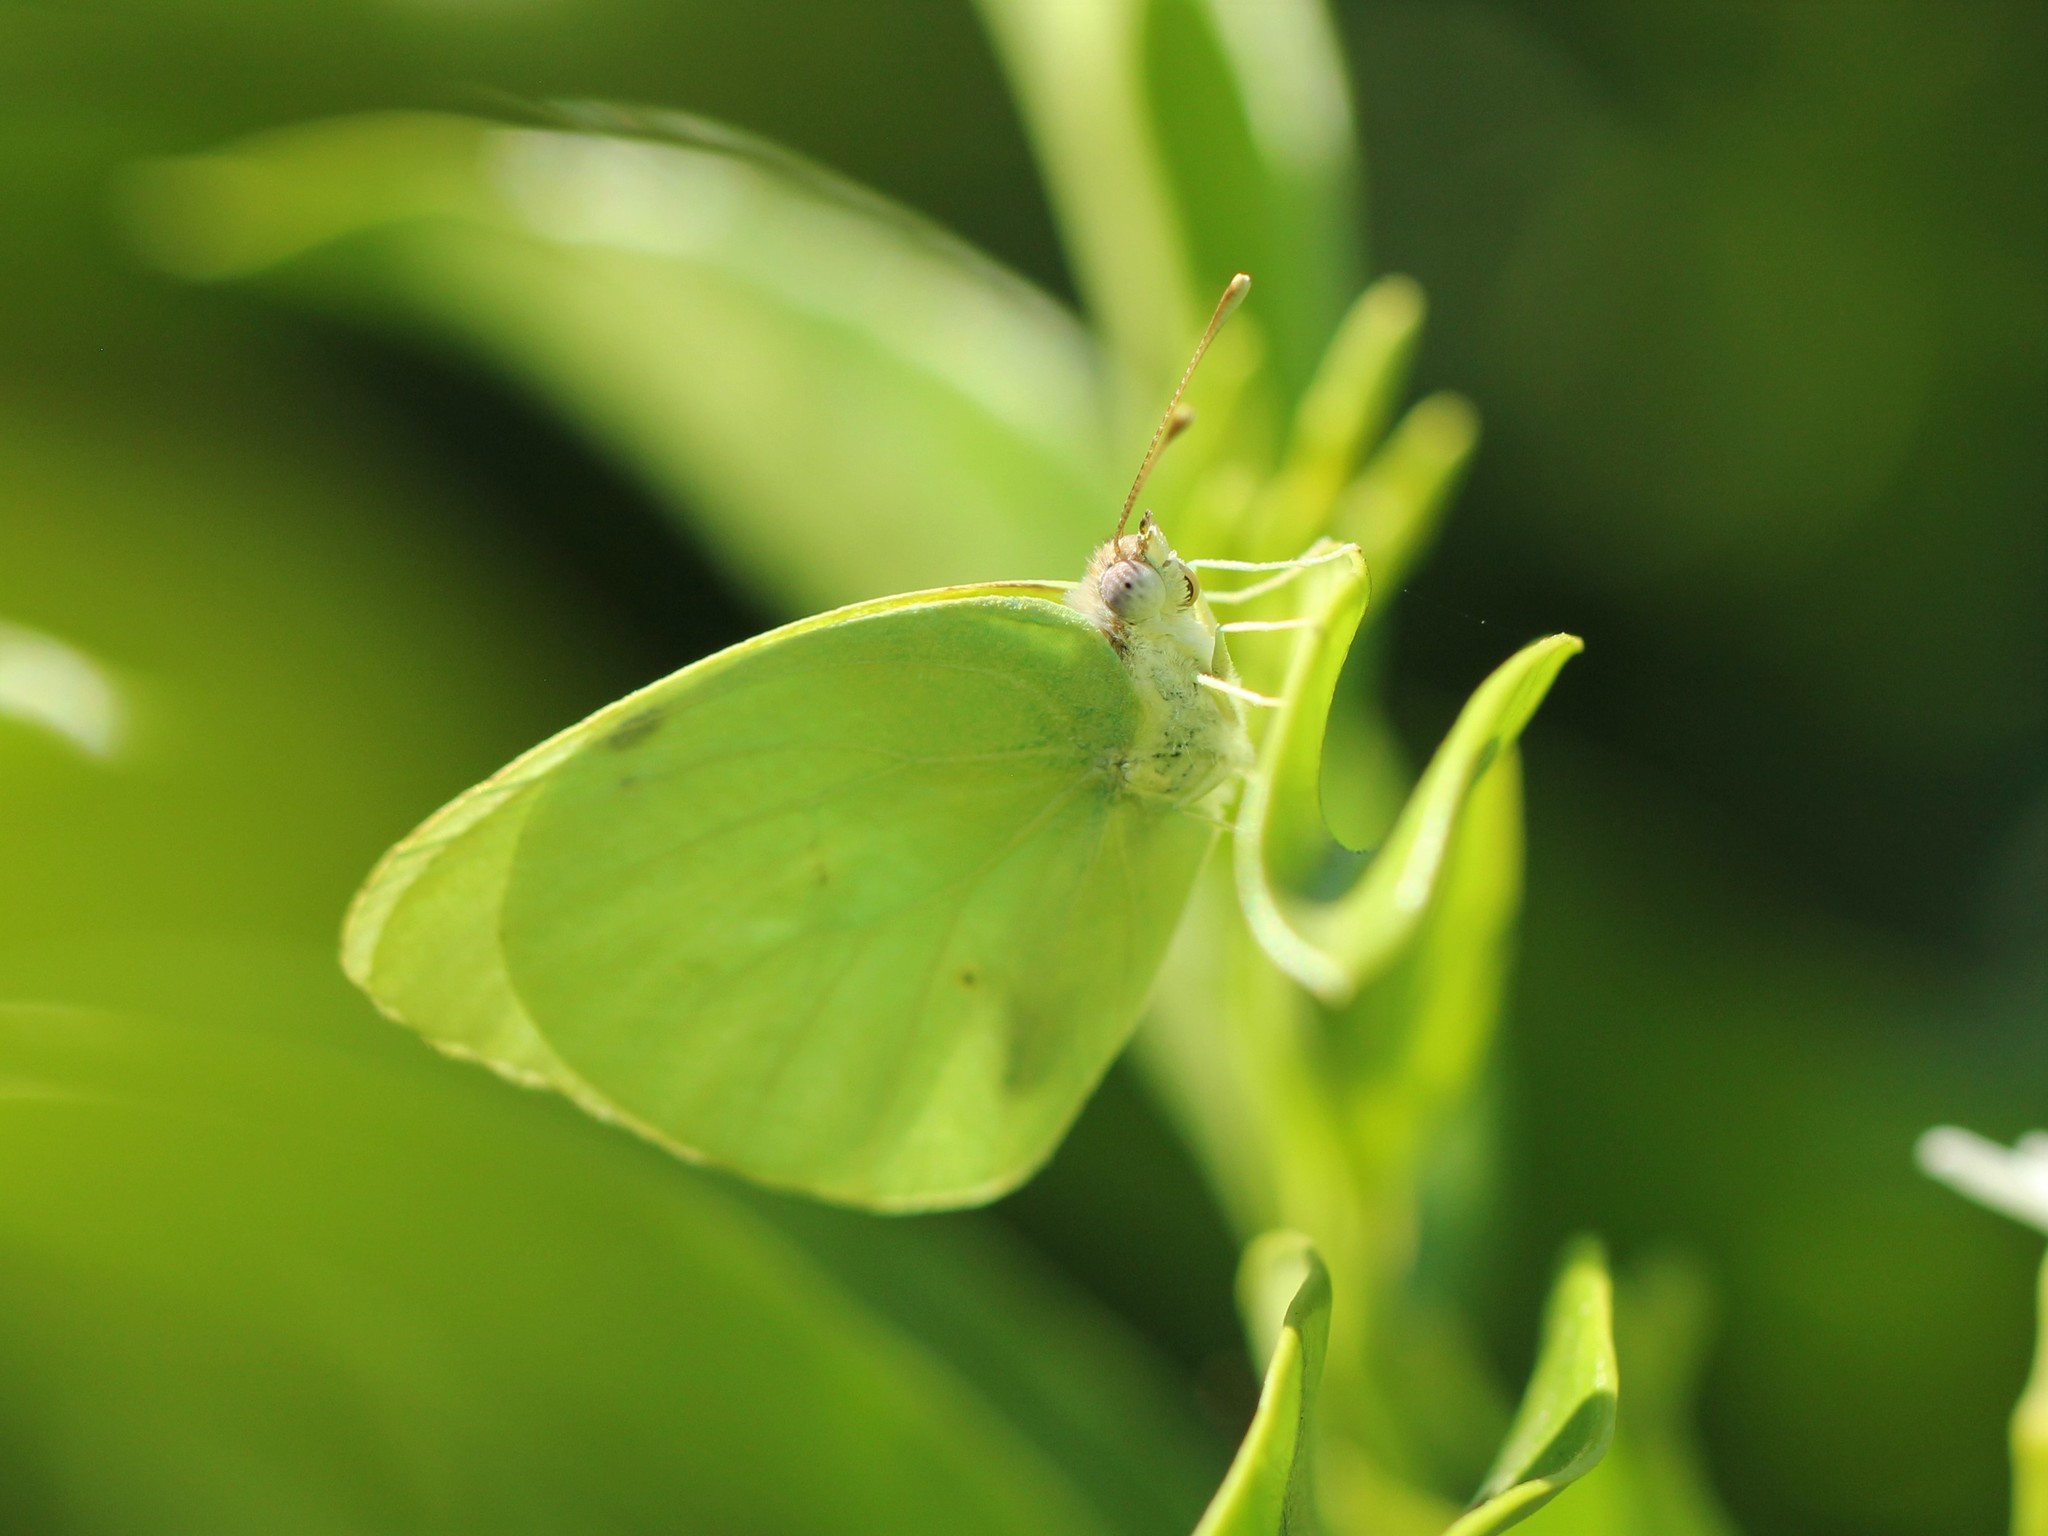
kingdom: Animalia
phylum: Arthropoda
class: Insecta
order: Lepidoptera
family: Pieridae
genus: Kricogonia
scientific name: Kricogonia lyside
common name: Guayacan sulphur,
